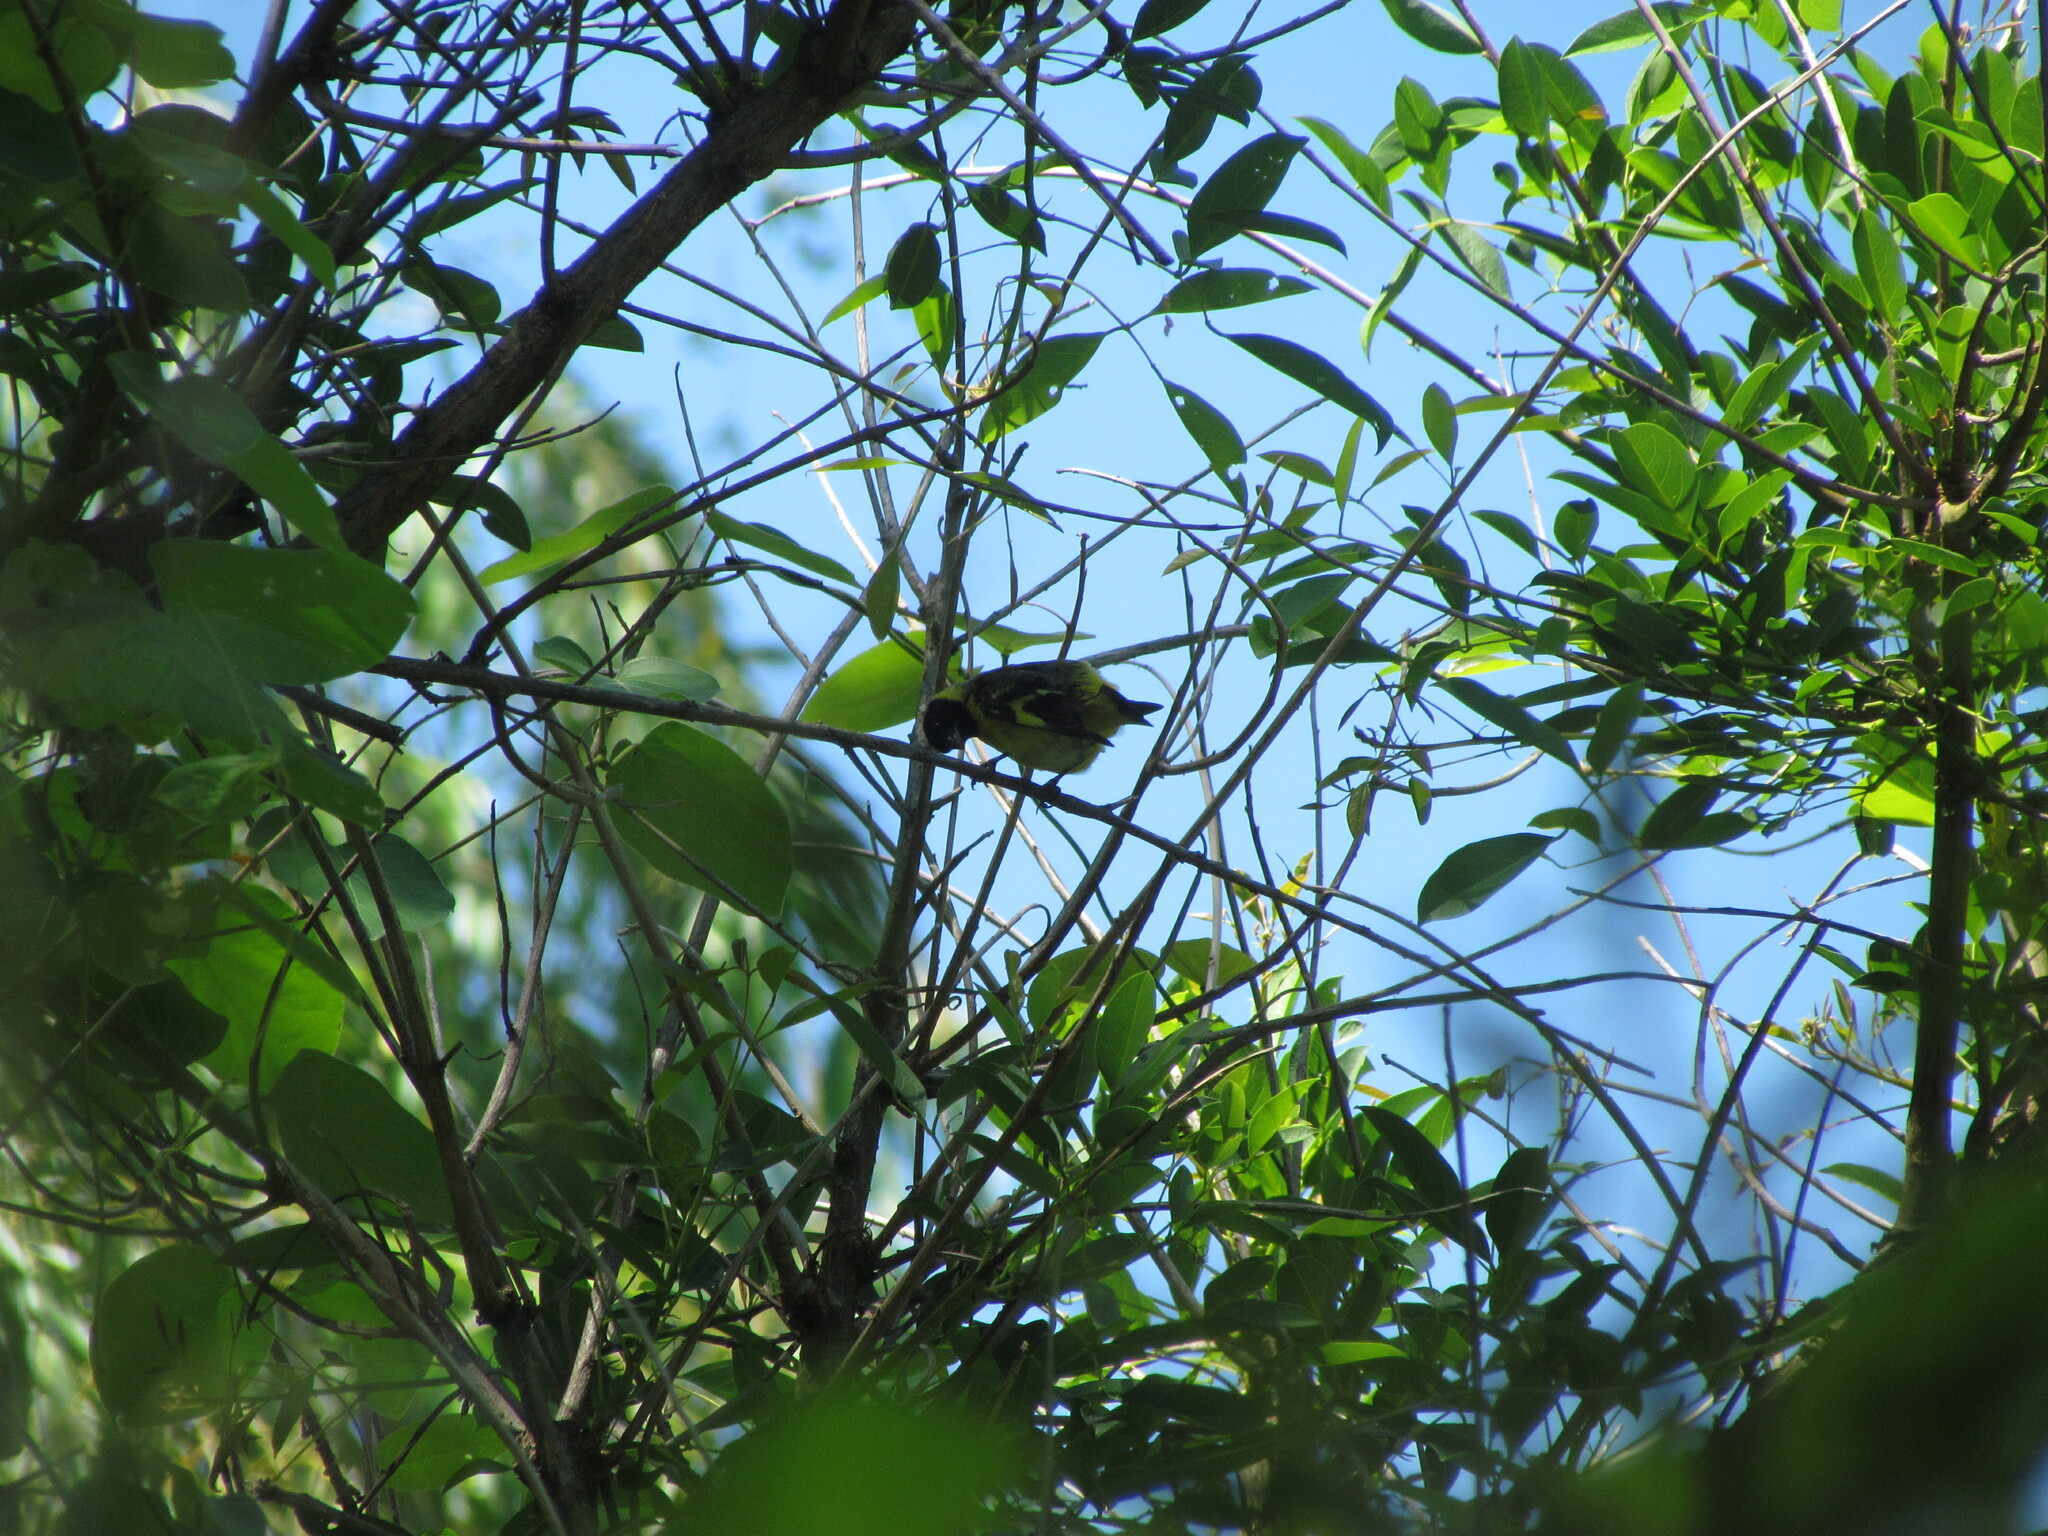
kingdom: Animalia
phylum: Chordata
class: Aves
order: Passeriformes
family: Fringillidae
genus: Spinus
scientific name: Spinus magellanicus
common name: Hooded siskin
